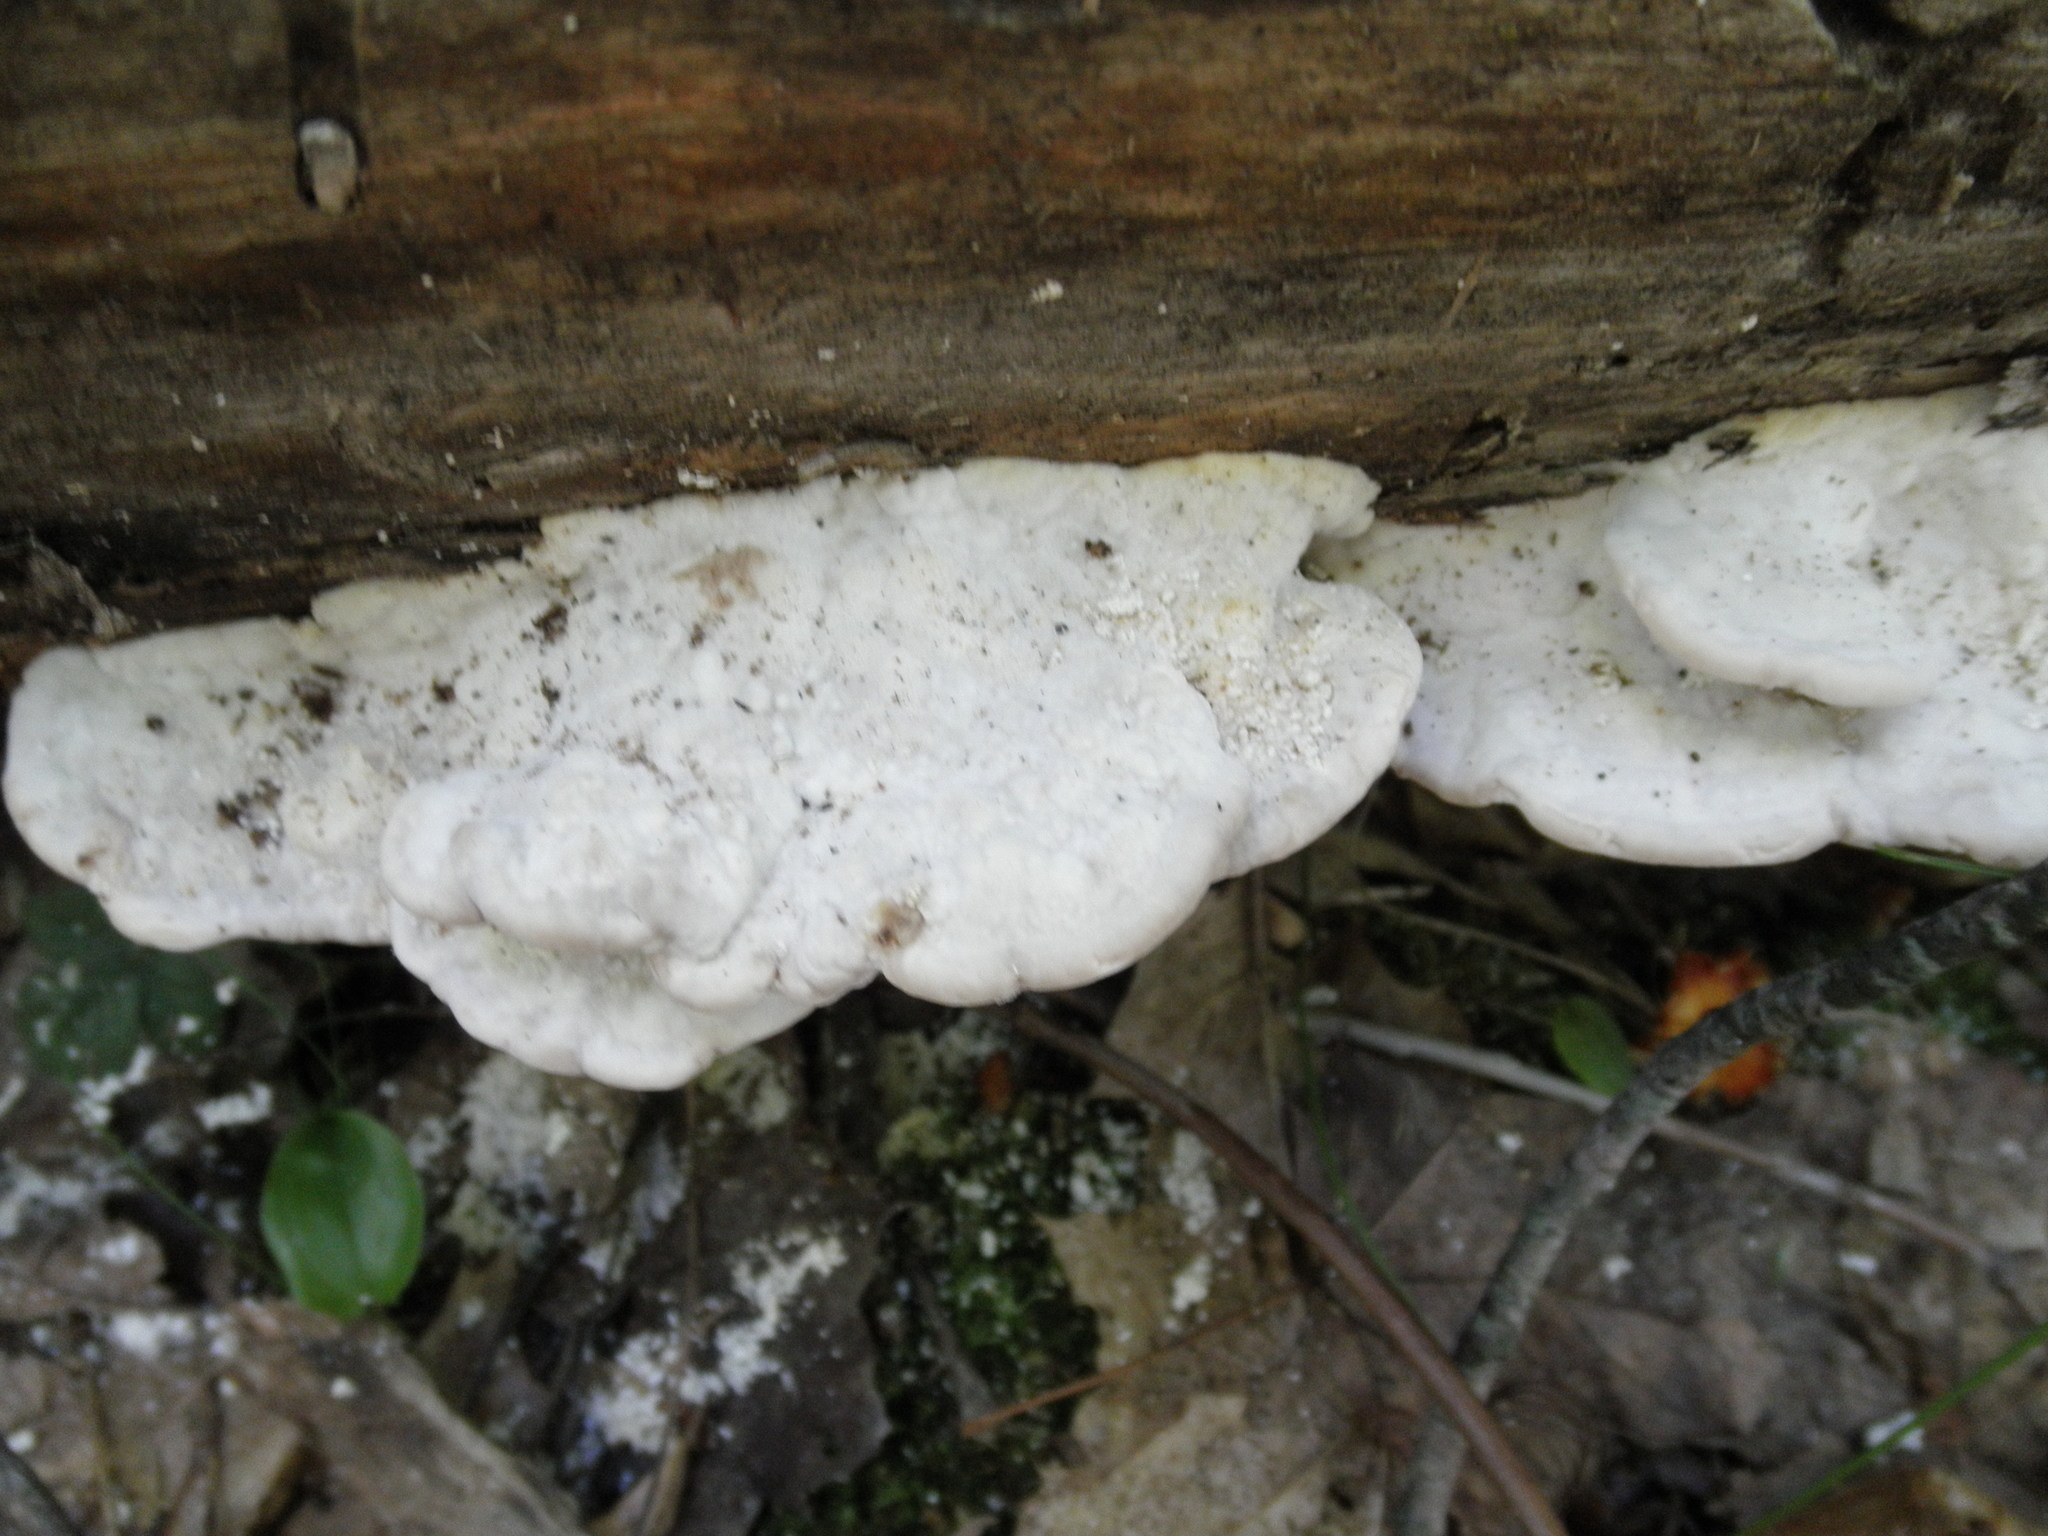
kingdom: Fungi
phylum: Basidiomycota
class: Agaricomycetes
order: Polyporales
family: Polyporaceae
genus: Trametes
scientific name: Trametes gibbosa
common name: Lumpy bracket
